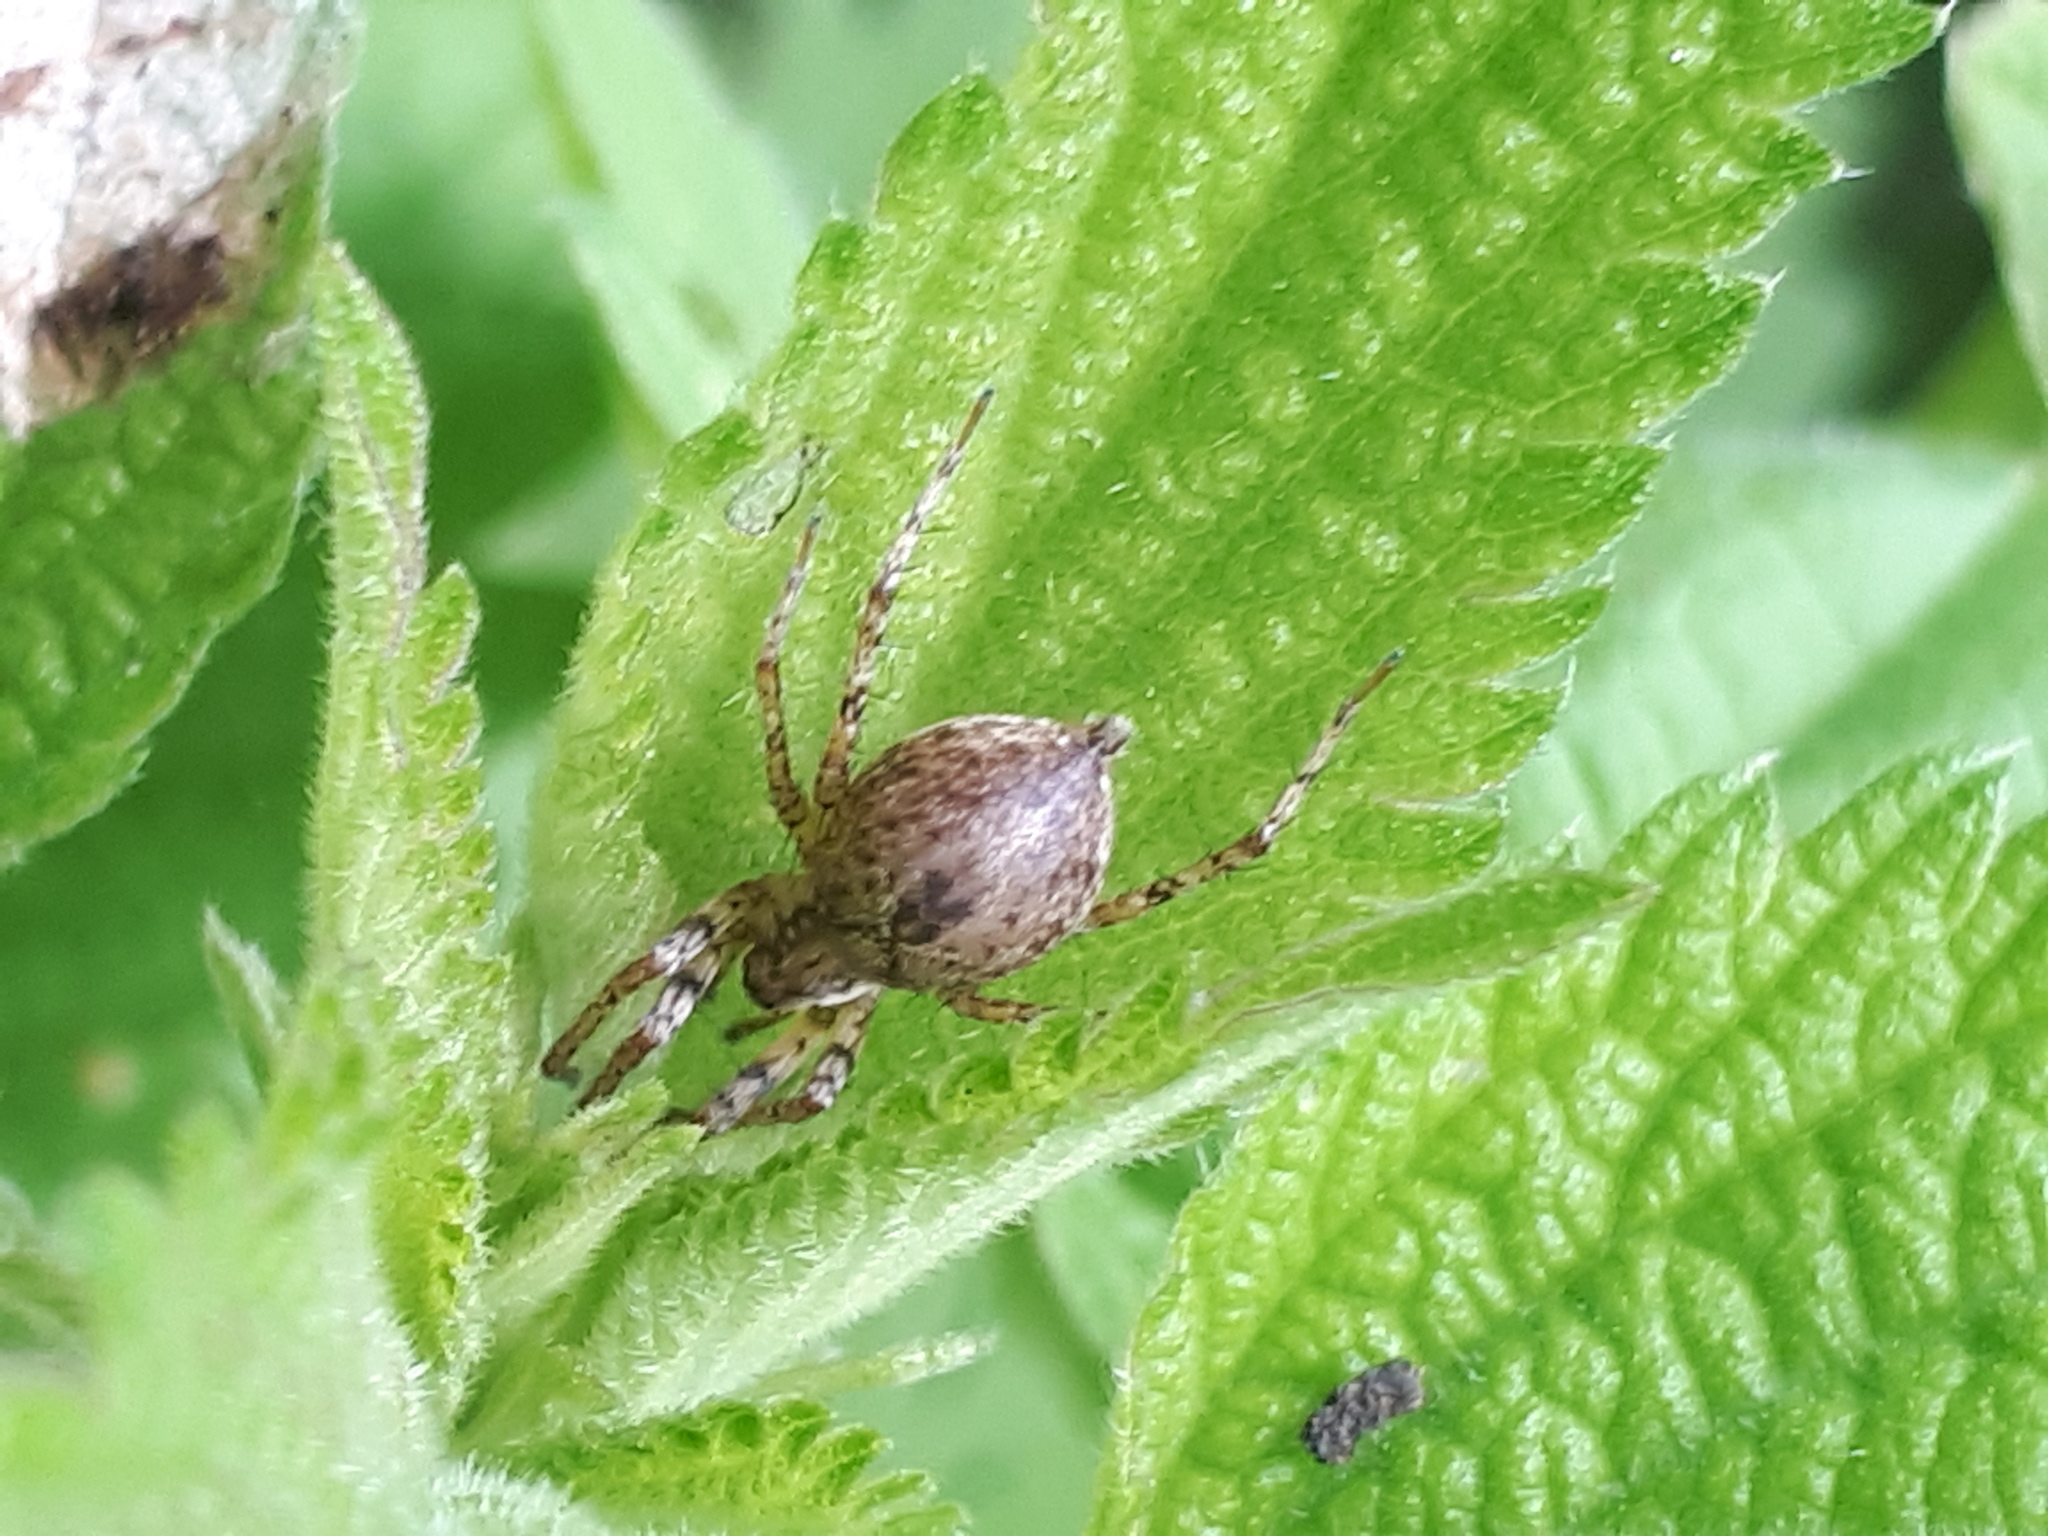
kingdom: Animalia
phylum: Arthropoda
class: Arachnida
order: Araneae
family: Anyphaenidae
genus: Anyphaena
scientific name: Anyphaena accentuata
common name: Buzzing spider
